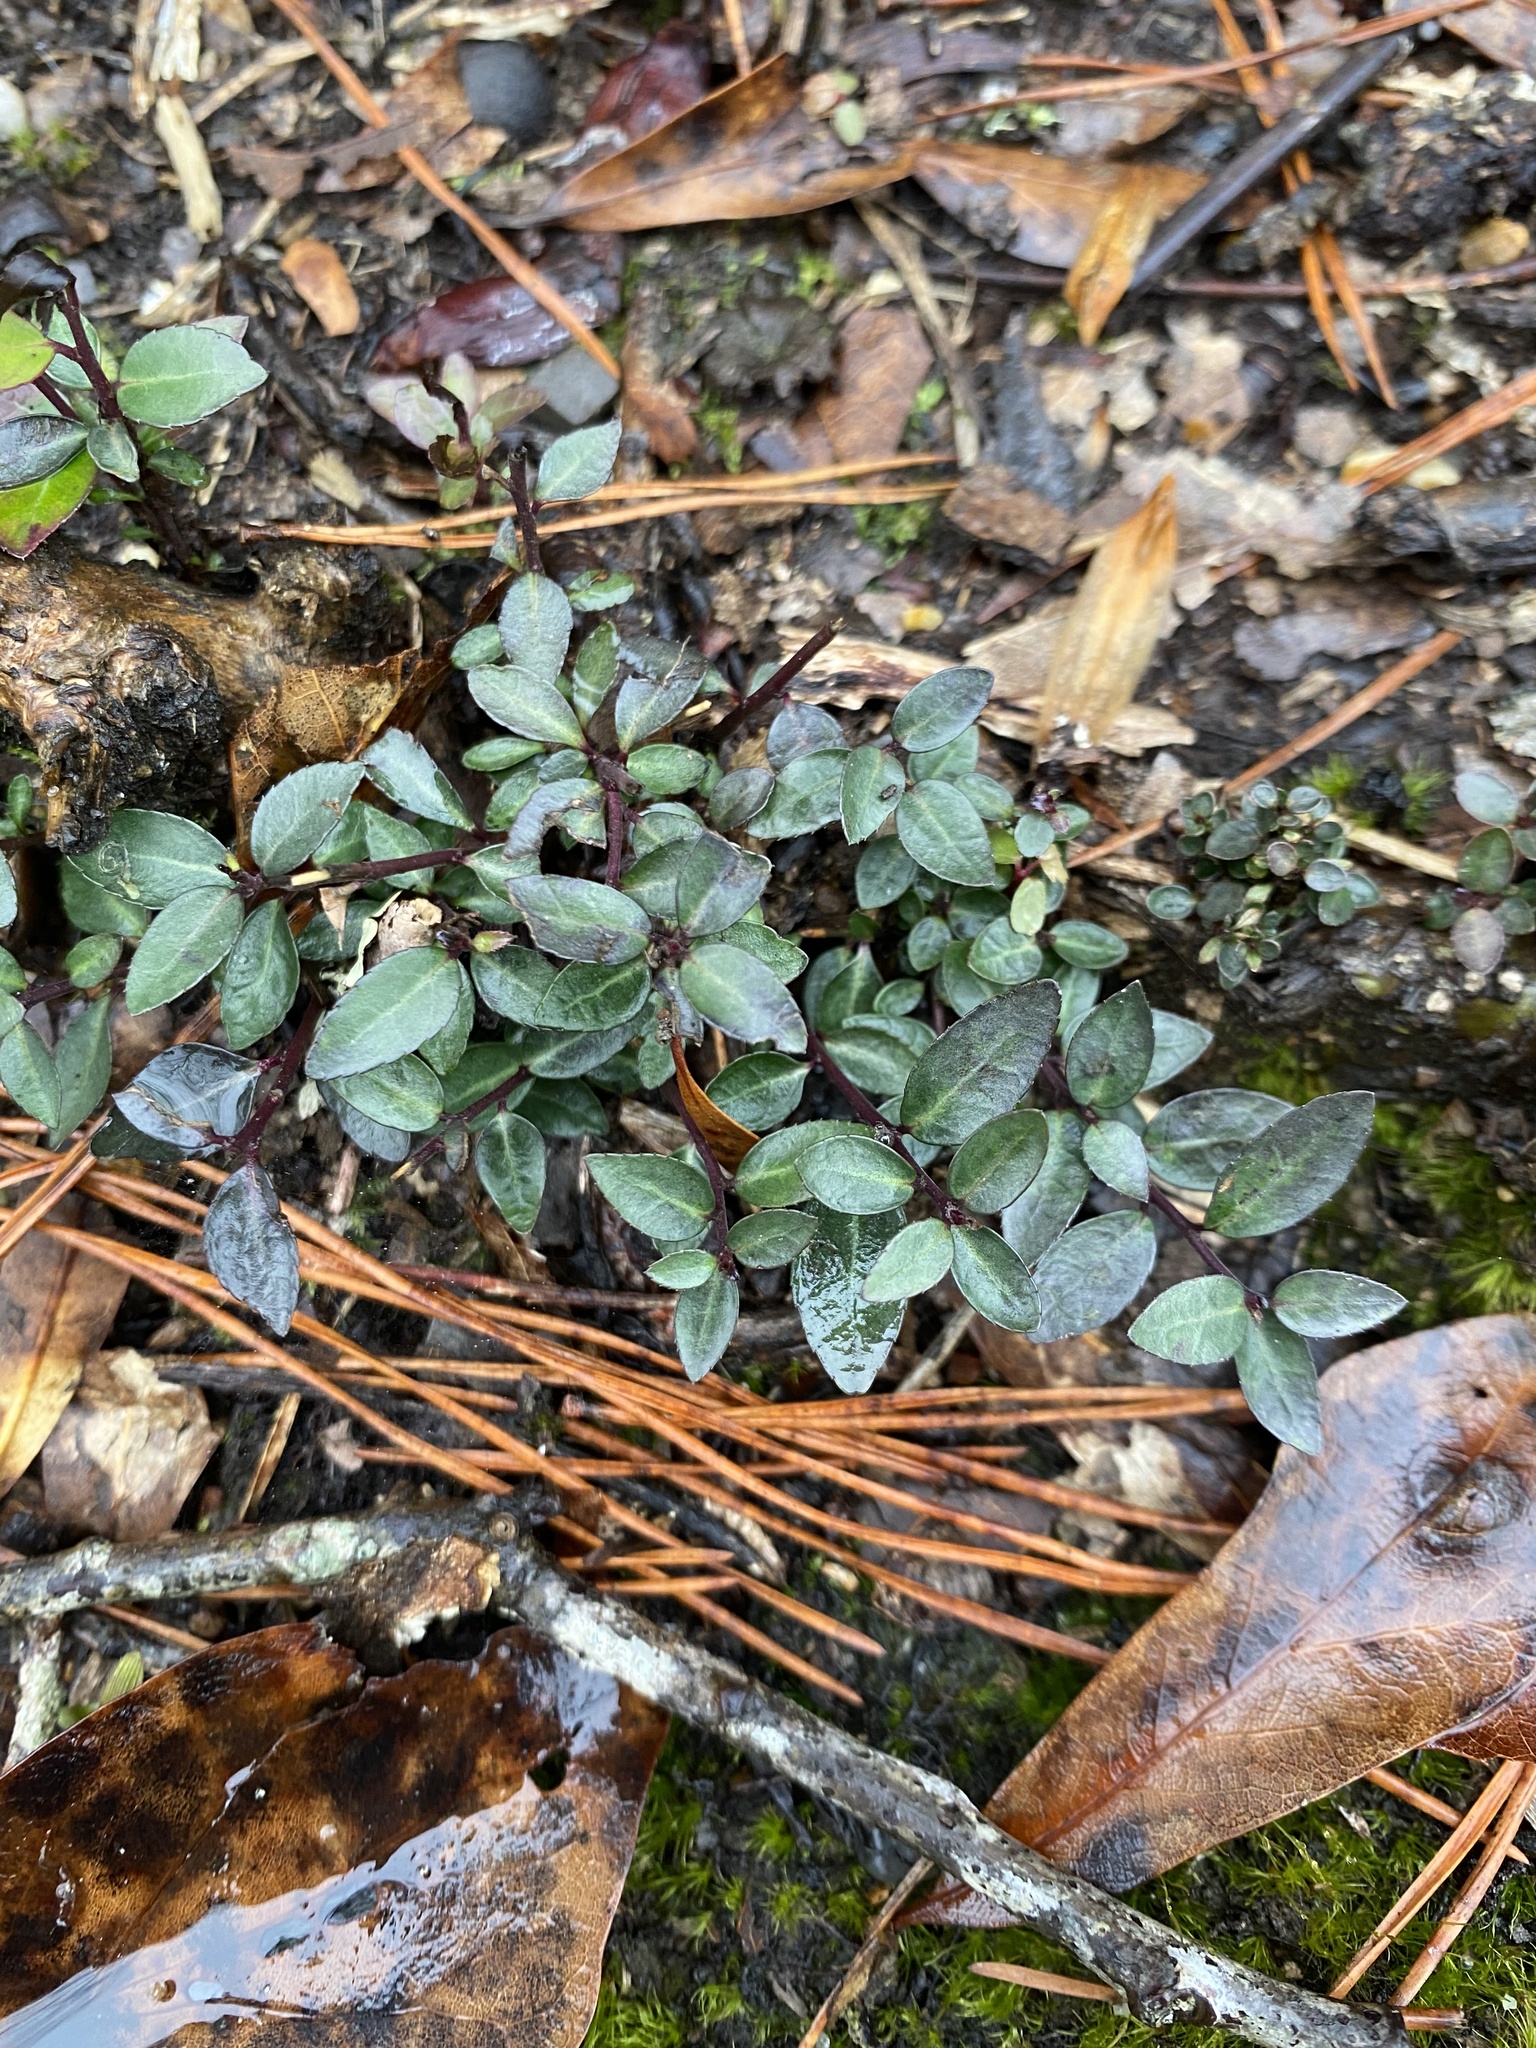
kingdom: Plantae
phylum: Tracheophyta
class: Magnoliopsida
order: Aquifoliales
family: Aquifoliaceae
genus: Ilex
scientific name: Ilex vomitoria
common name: Yaupon holly
